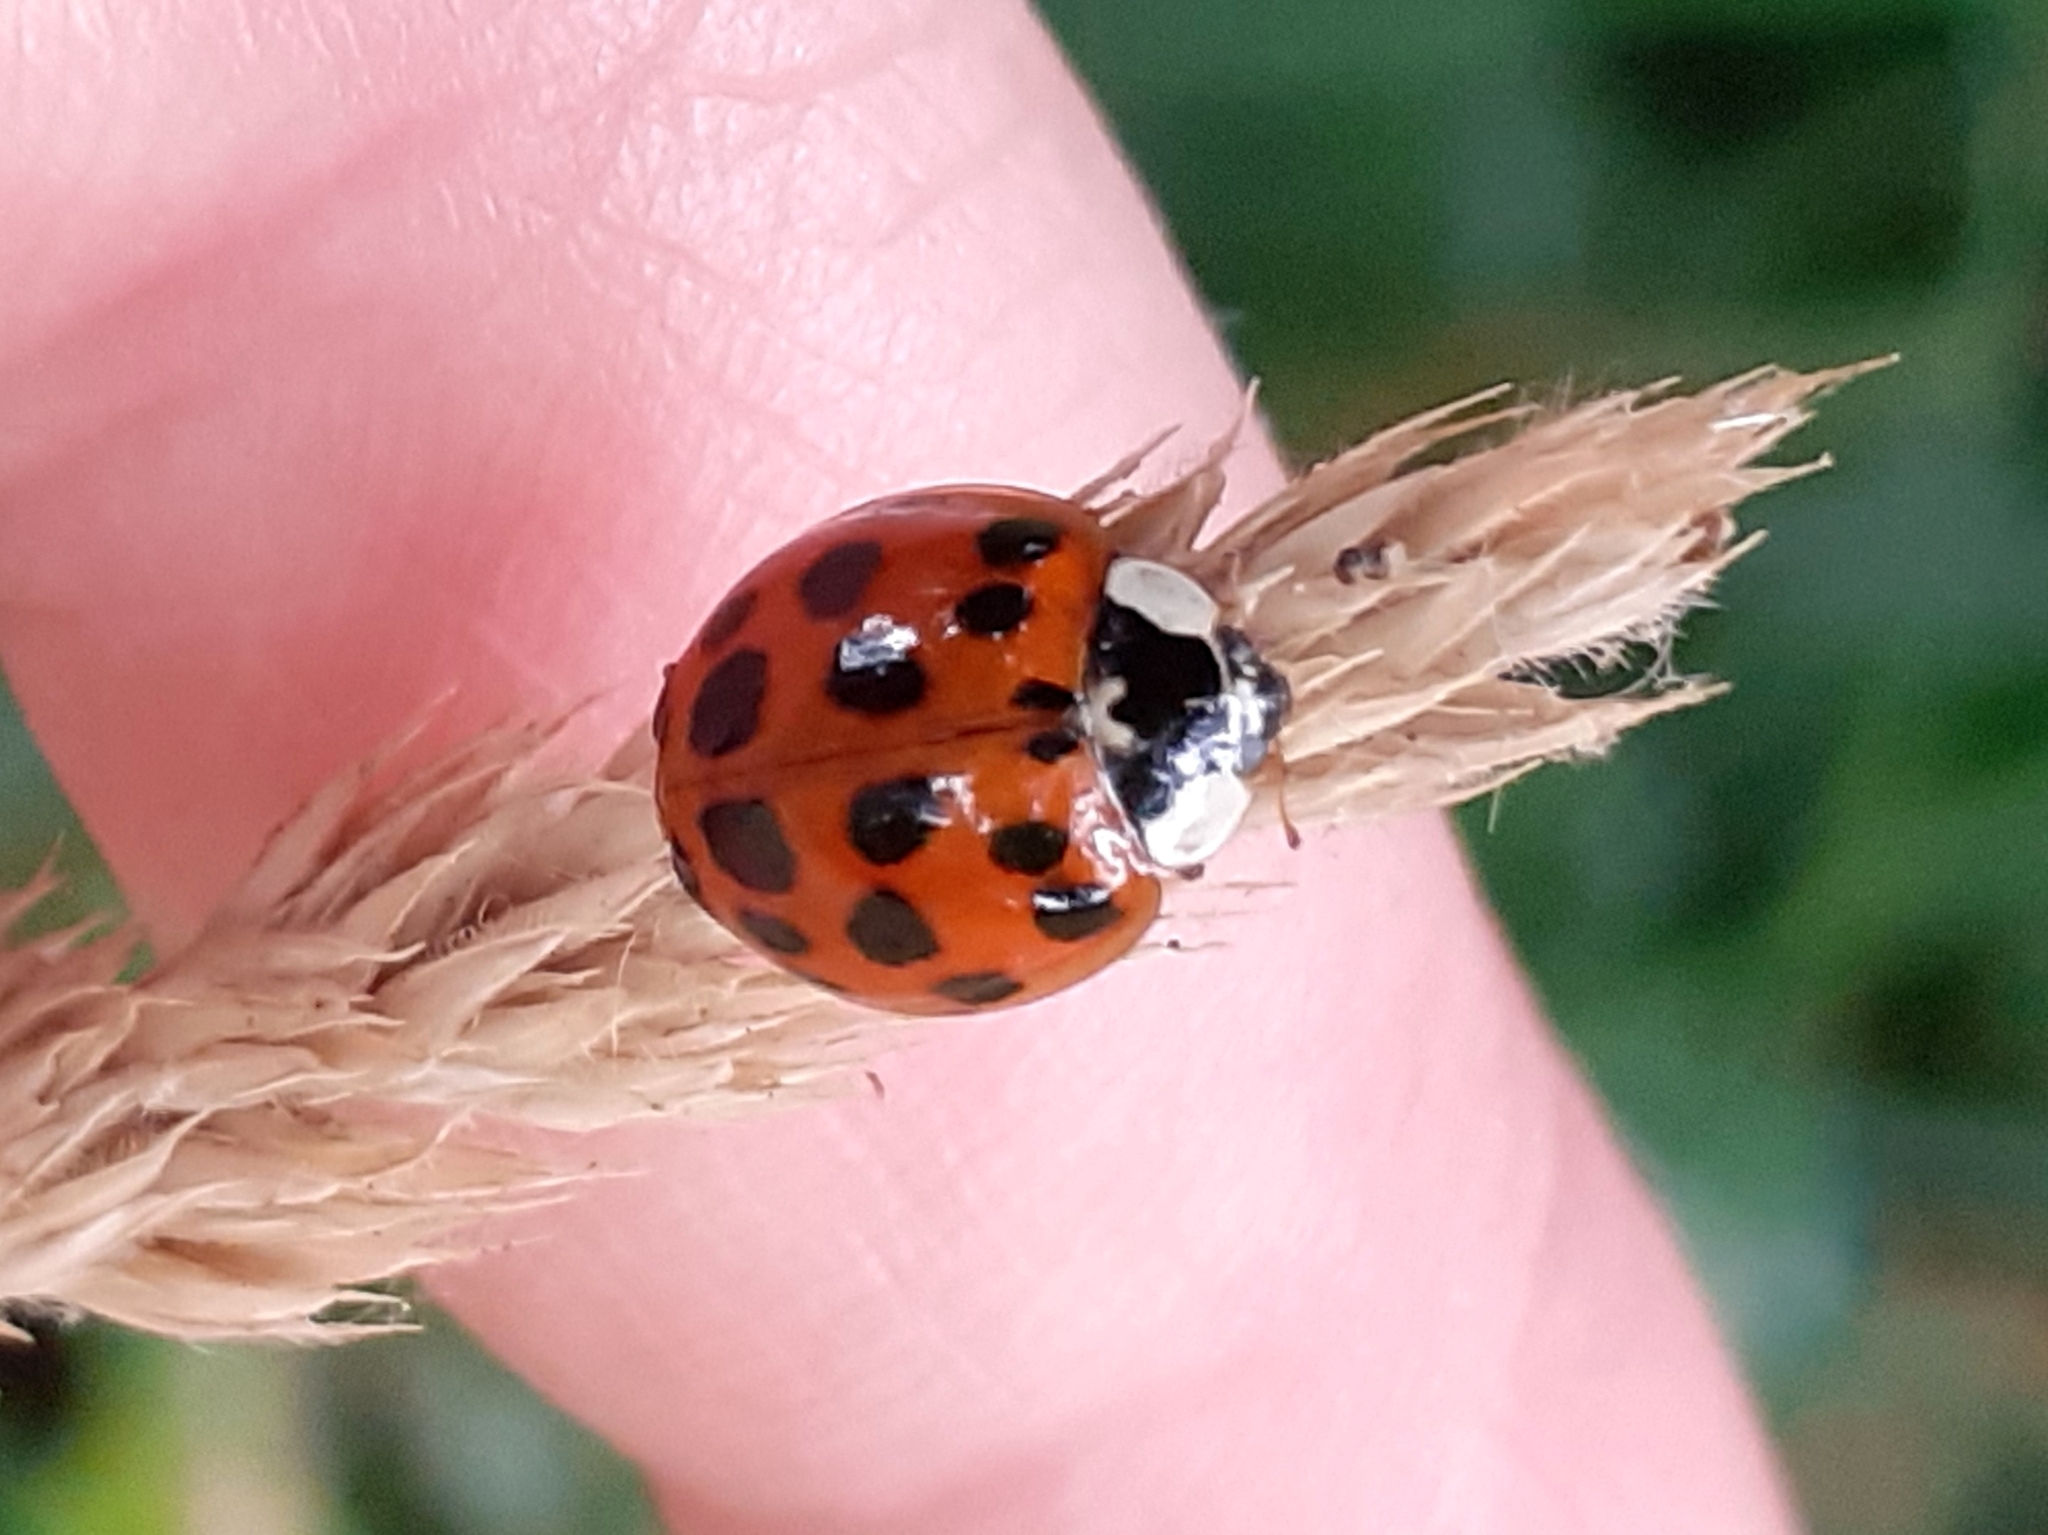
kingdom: Animalia
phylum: Arthropoda
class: Insecta
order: Coleoptera
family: Coccinellidae
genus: Harmonia
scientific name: Harmonia axyridis
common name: Harlequin ladybird
